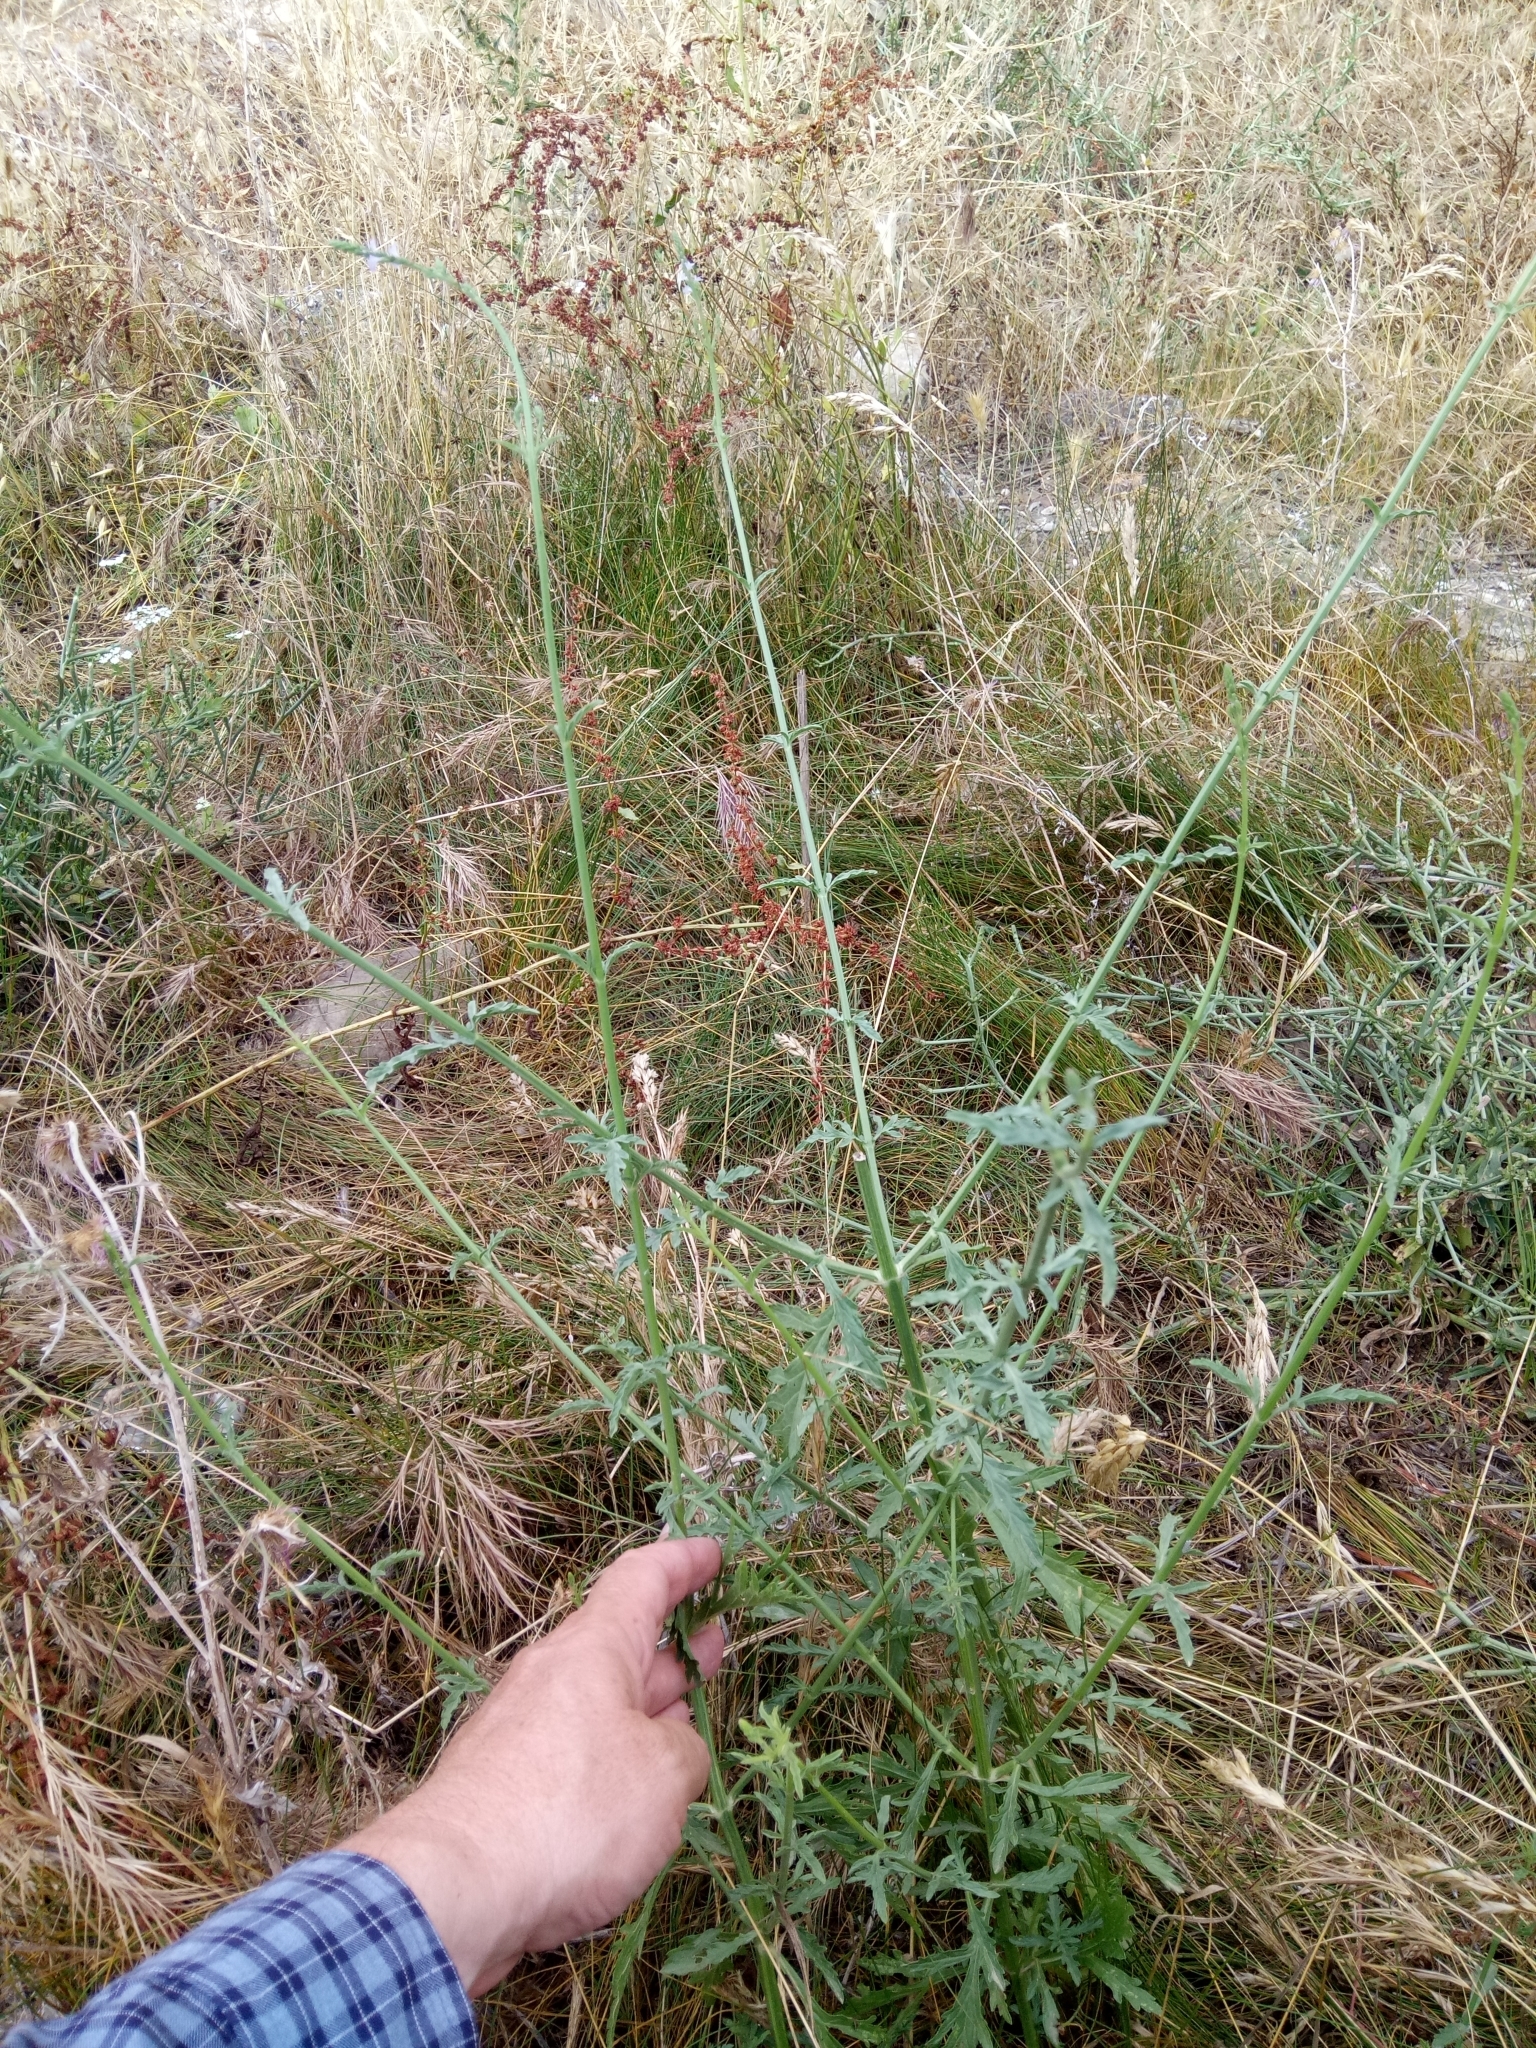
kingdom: Plantae
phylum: Tracheophyta
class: Magnoliopsida
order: Lamiales
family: Verbenaceae
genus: Verbena
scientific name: Verbena officinalis
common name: Vervain
